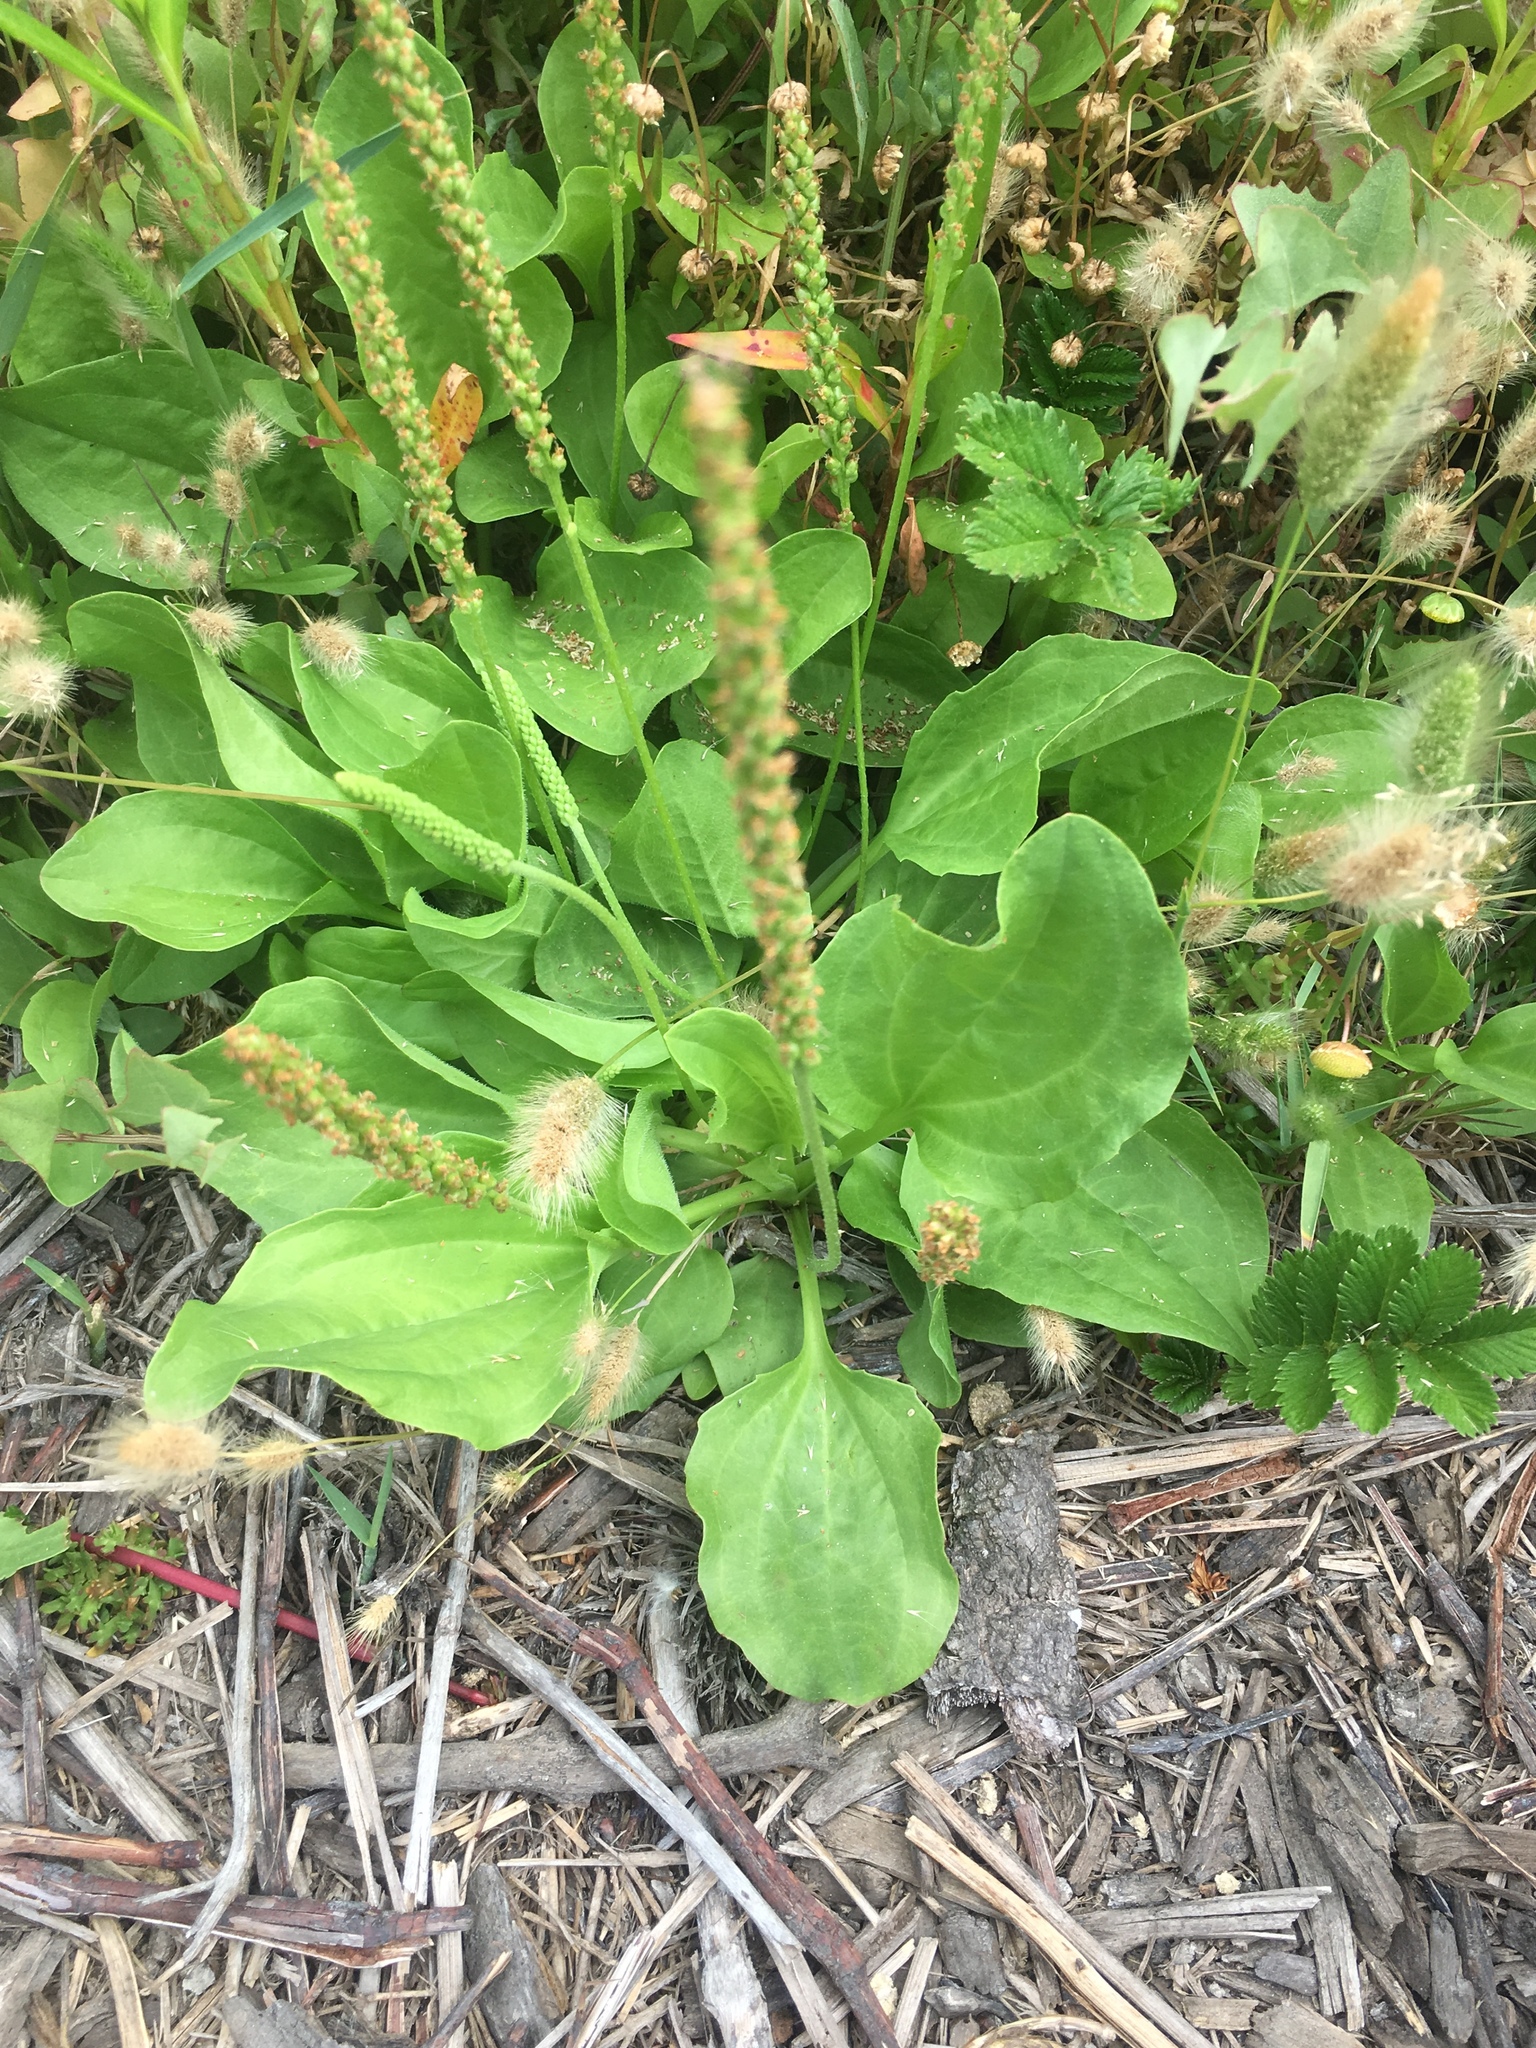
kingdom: Plantae
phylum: Tracheophyta
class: Magnoliopsida
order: Lamiales
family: Plantaginaceae
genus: Plantago
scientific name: Plantago major
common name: Common plantain
